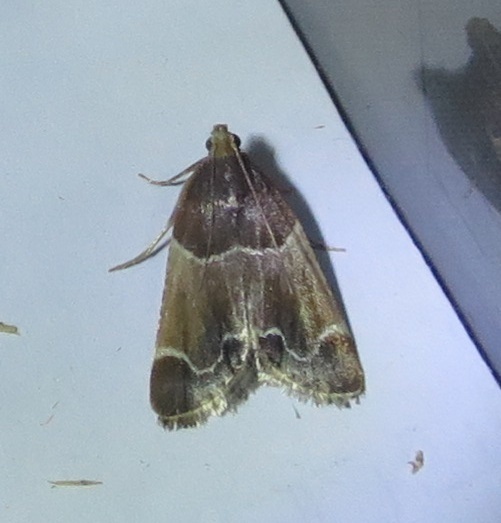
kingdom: Animalia
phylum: Arthropoda
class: Insecta
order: Lepidoptera
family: Pyralidae
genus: Pyralis
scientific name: Pyralis farinalis
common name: Meal moth
